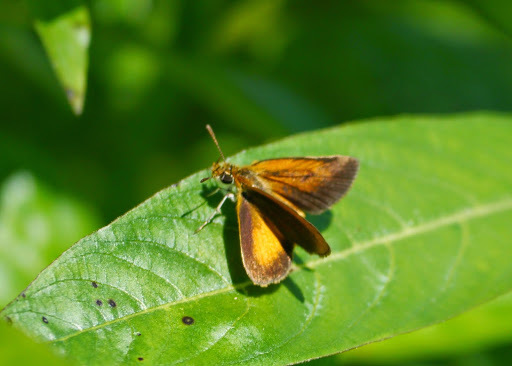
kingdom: Animalia
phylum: Arthropoda
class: Insecta
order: Lepidoptera
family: Hesperiidae
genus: Ancyloxypha
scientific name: Ancyloxypha numitor
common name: Least skipper
